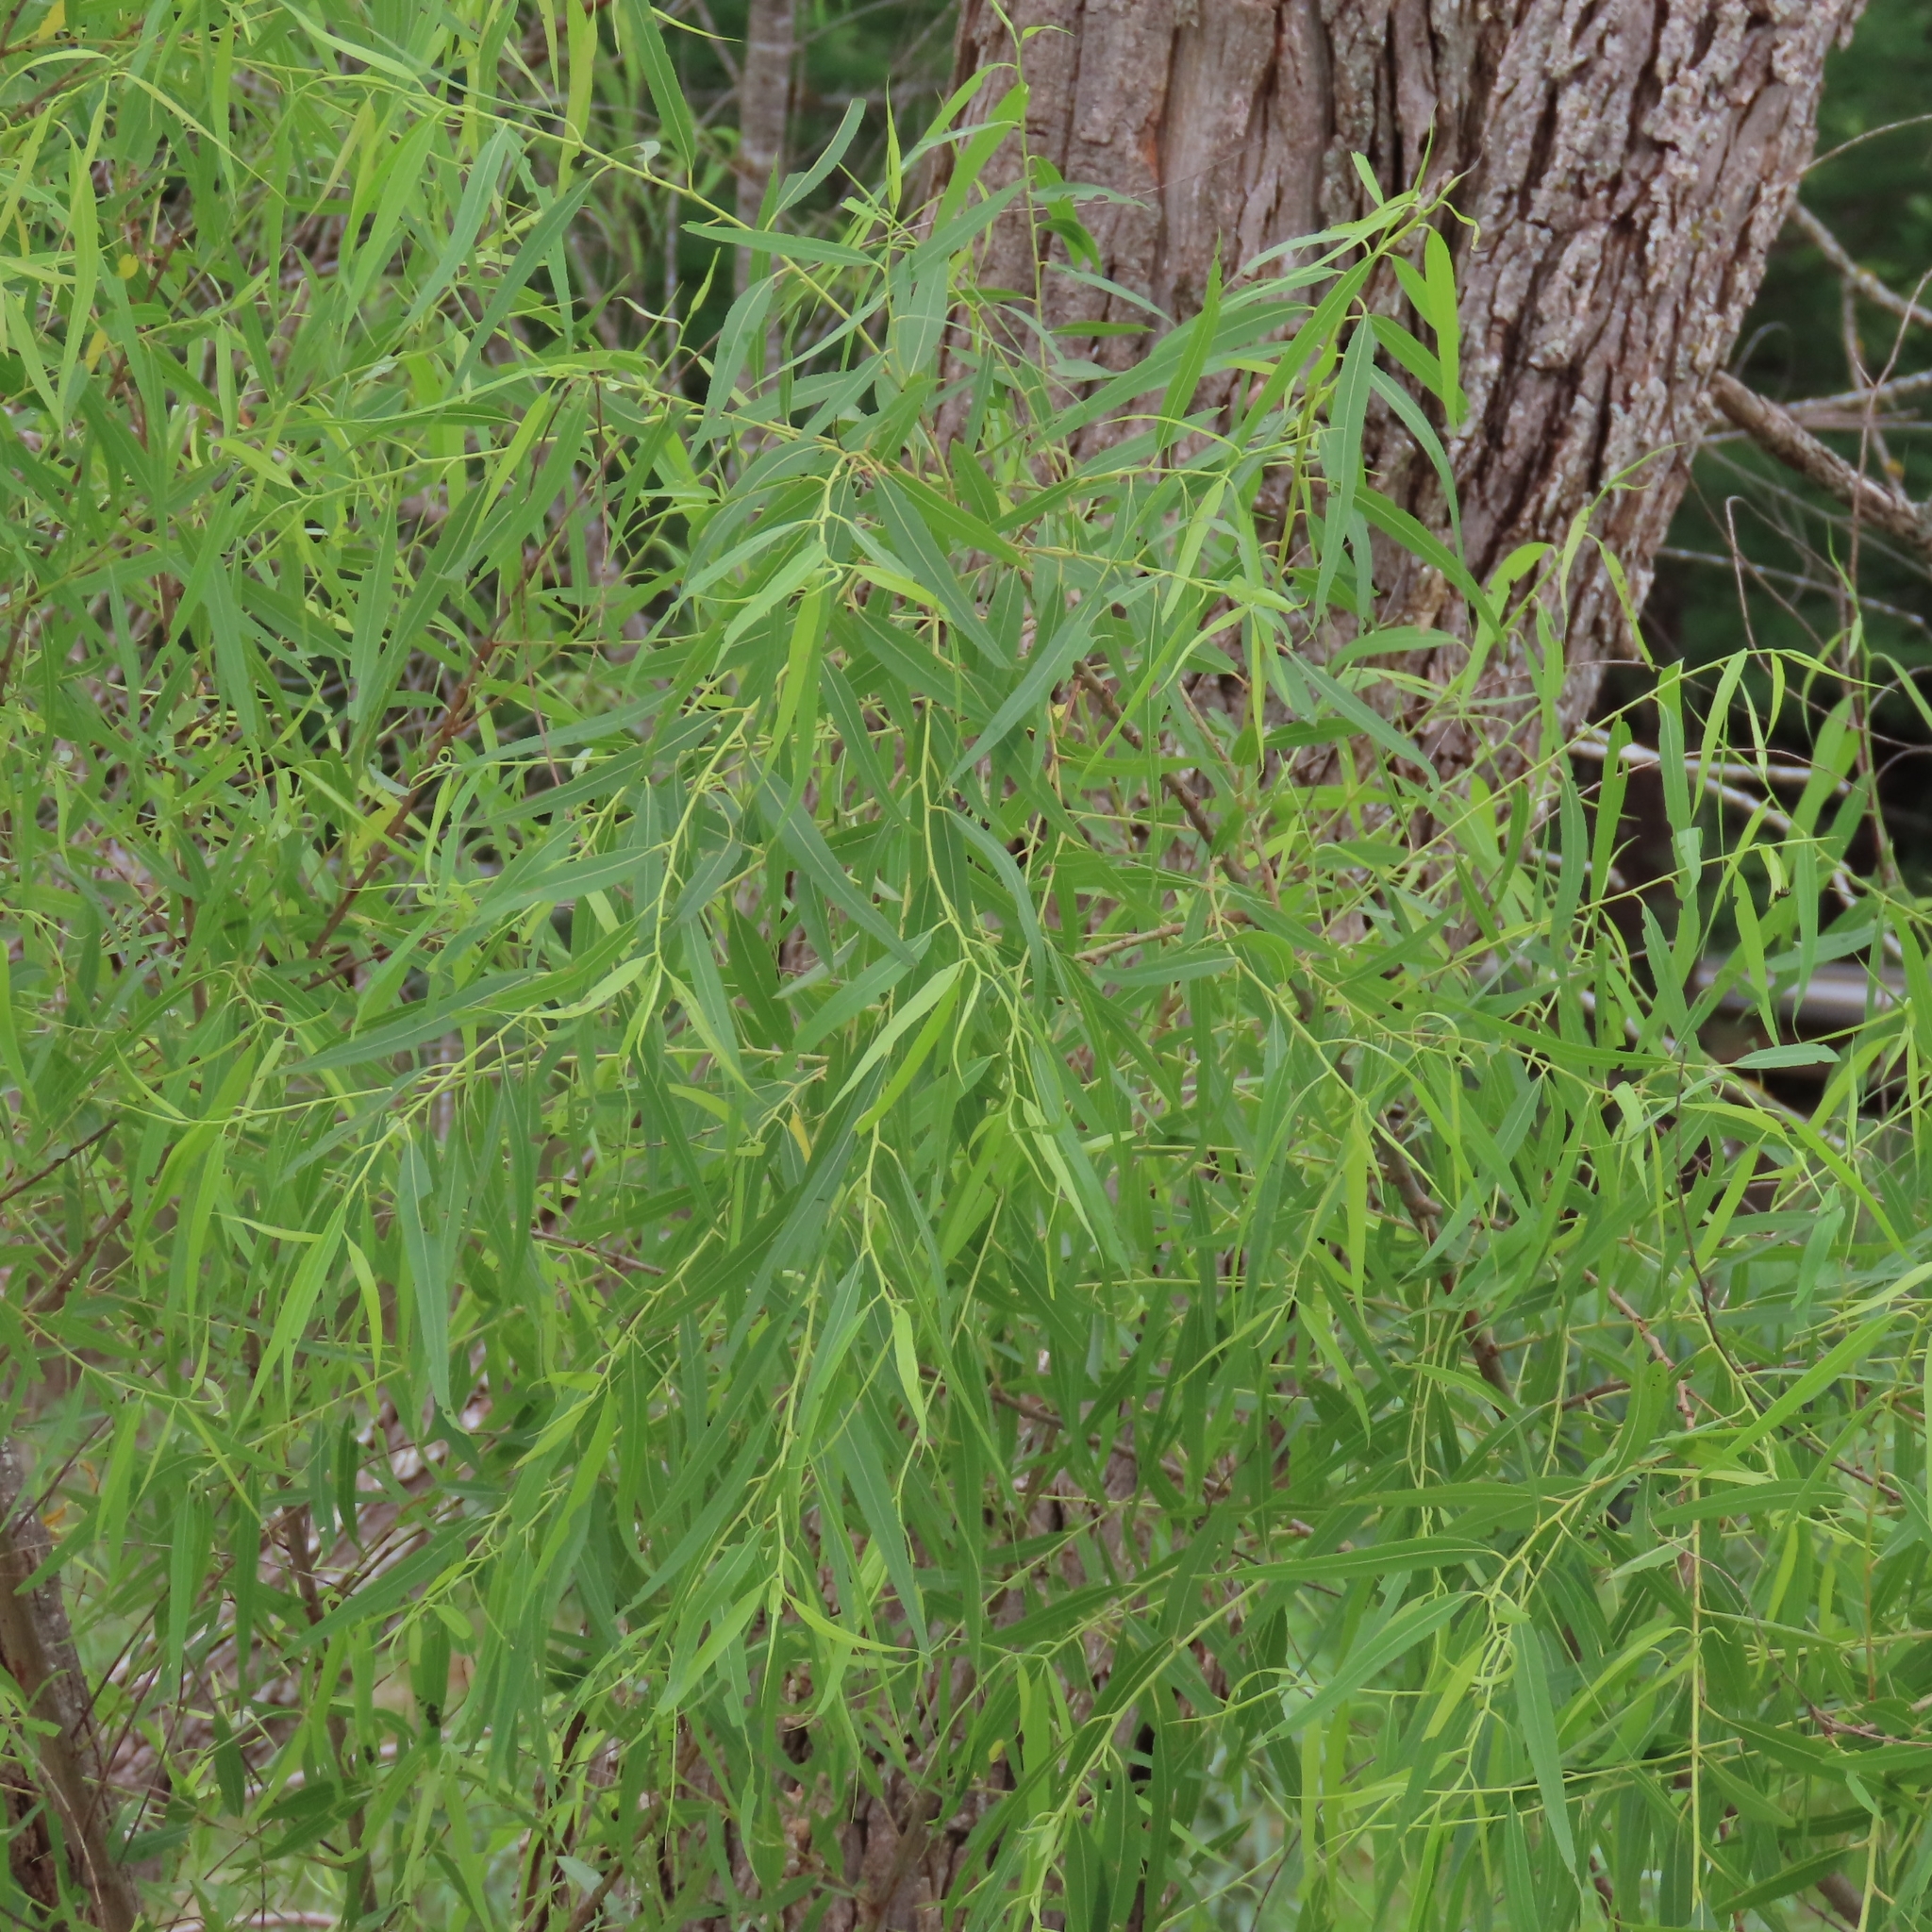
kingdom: Plantae
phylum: Tracheophyta
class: Magnoliopsida
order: Malpighiales
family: Salicaceae
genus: Salix
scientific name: Salix nigra
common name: Black willow
